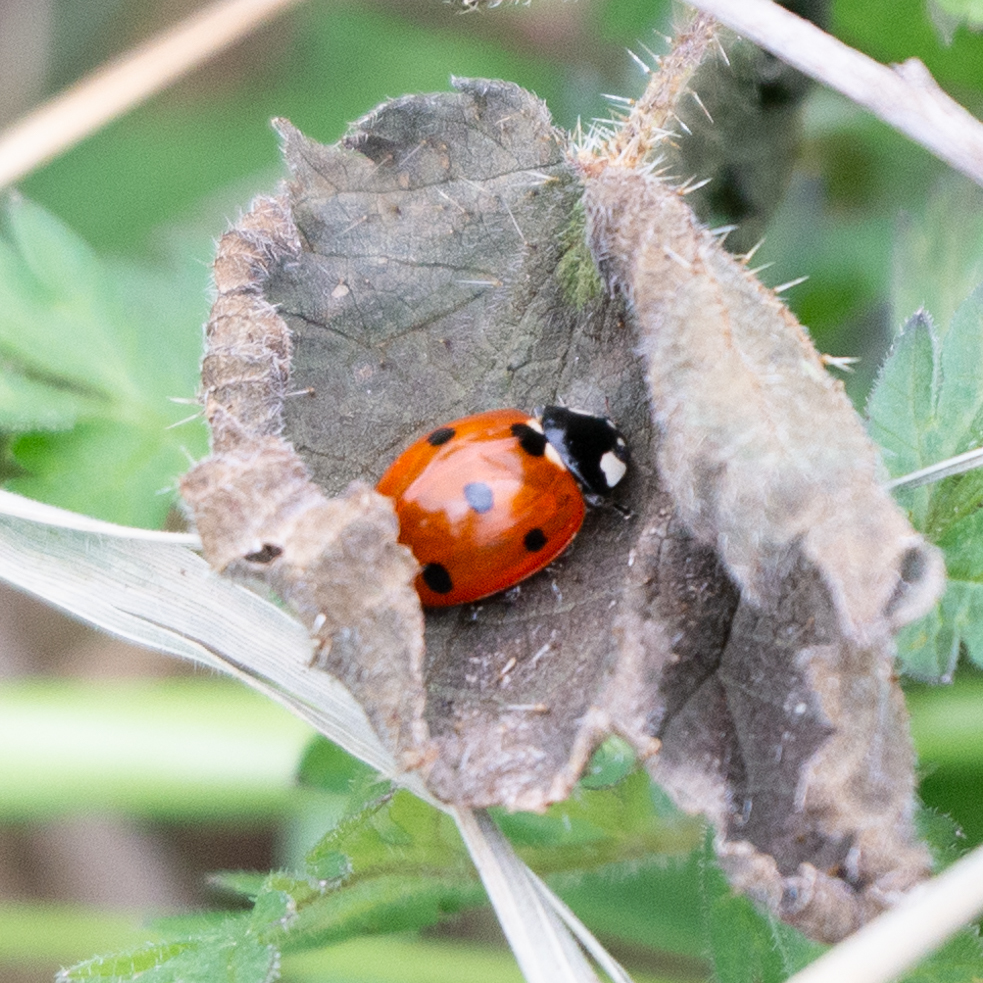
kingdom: Animalia
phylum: Arthropoda
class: Insecta
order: Coleoptera
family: Coccinellidae
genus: Coccinella
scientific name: Coccinella septempunctata
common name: Sevenspotted lady beetle
